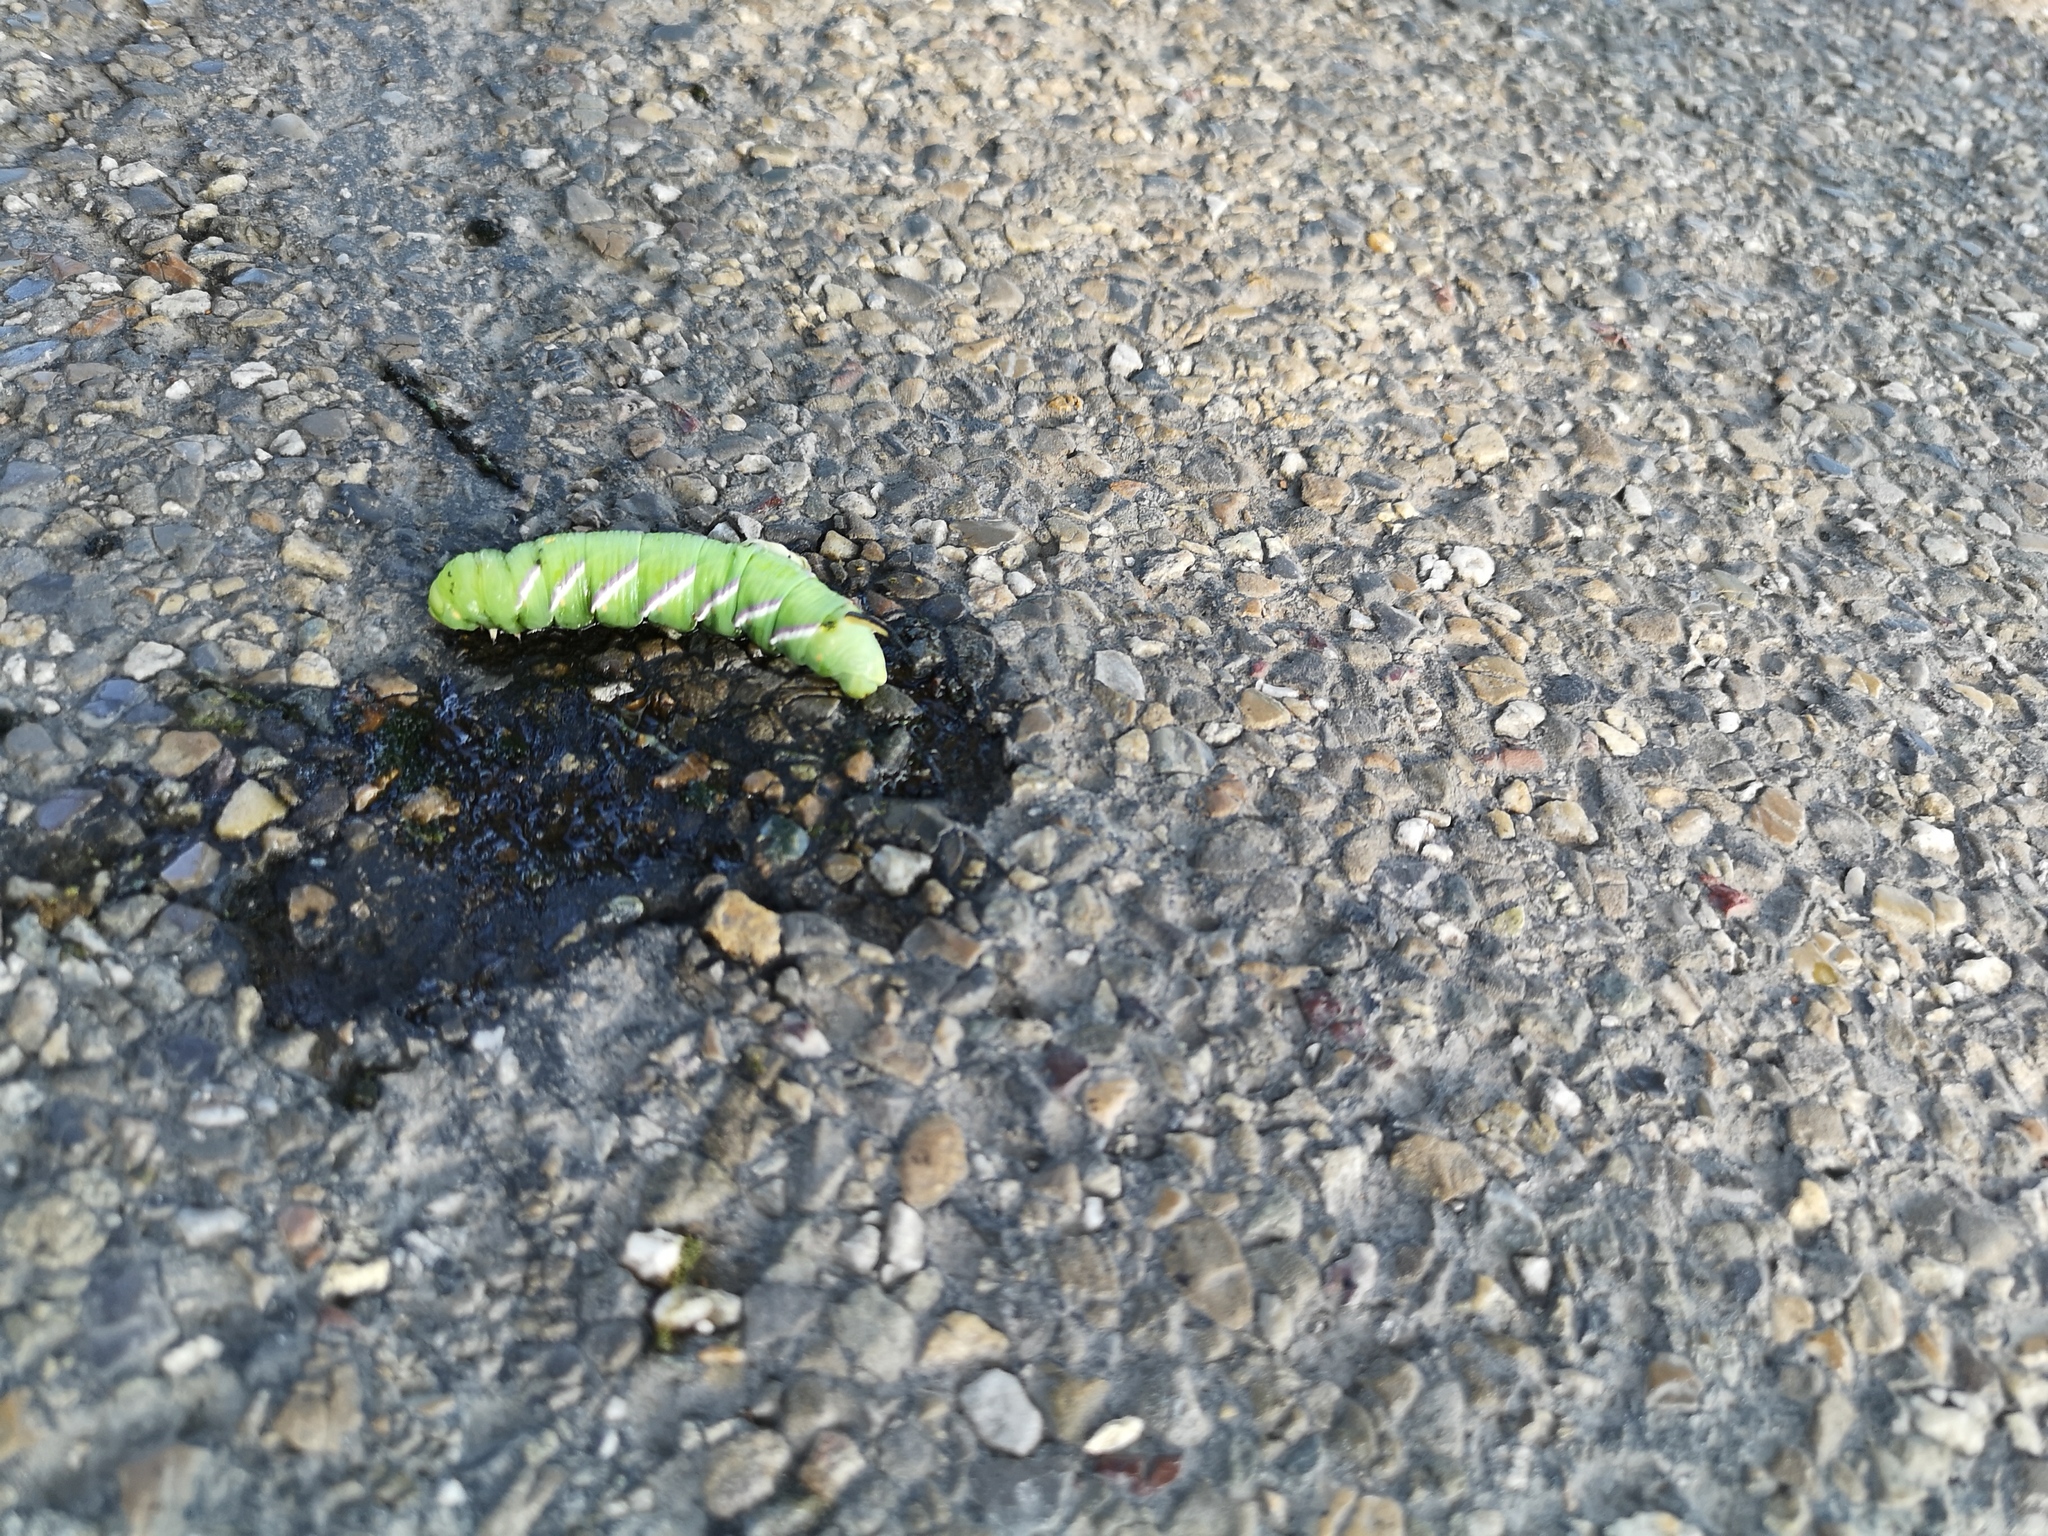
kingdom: Animalia
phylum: Arthropoda
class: Insecta
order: Lepidoptera
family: Sphingidae
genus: Sphinx
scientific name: Sphinx ligustri
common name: Privet hawk-moth
